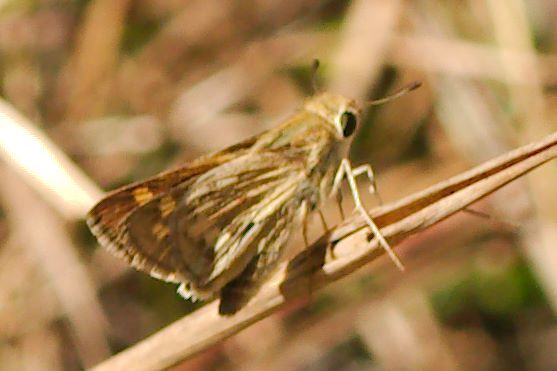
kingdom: Animalia
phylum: Arthropoda
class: Insecta
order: Lepidoptera
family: Hesperiidae
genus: Hylephila
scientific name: Hylephila phyleus
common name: Fiery skipper
